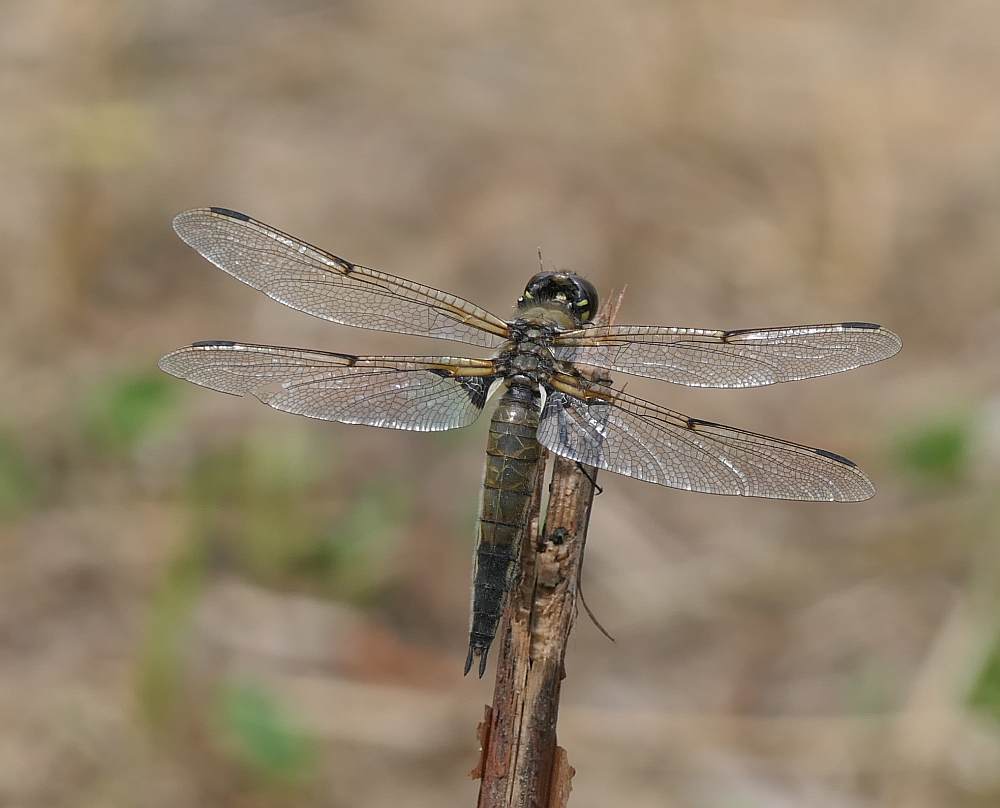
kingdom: Animalia
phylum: Arthropoda
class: Insecta
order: Odonata
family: Libellulidae
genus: Libellula
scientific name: Libellula quadrimaculata
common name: Four-spotted chaser
